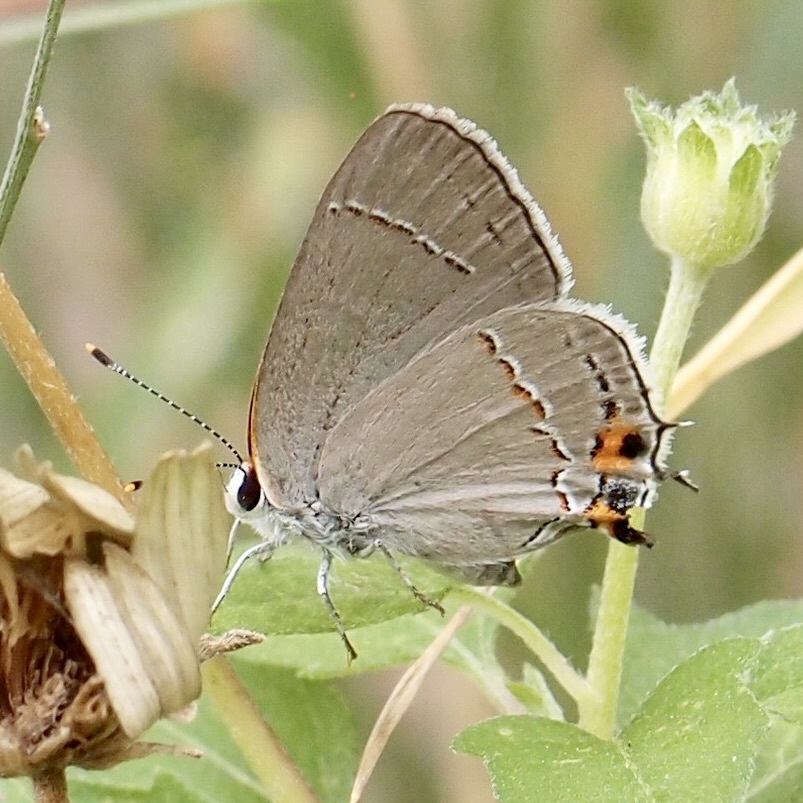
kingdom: Animalia
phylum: Arthropoda
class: Insecta
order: Lepidoptera
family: Lycaenidae
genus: Strymon
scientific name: Strymon melinus
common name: Gray hairstreak
